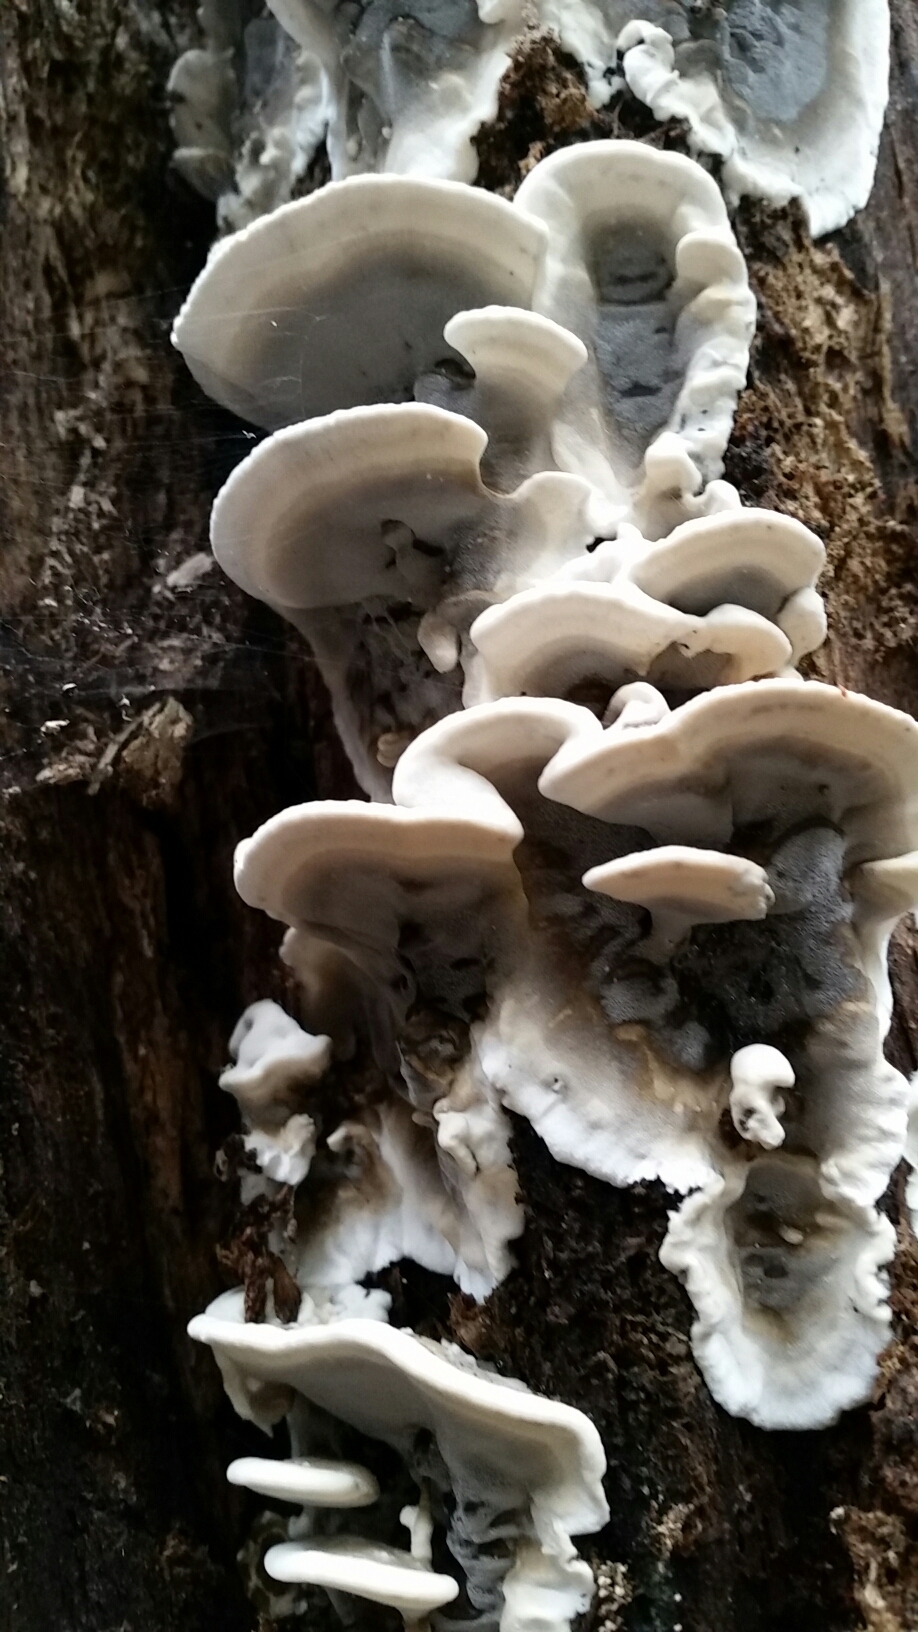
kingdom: Fungi
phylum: Basidiomycota
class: Agaricomycetes
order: Polyporales
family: Phanerochaetaceae
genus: Bjerkandera
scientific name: Bjerkandera adusta
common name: Smoky bracket
